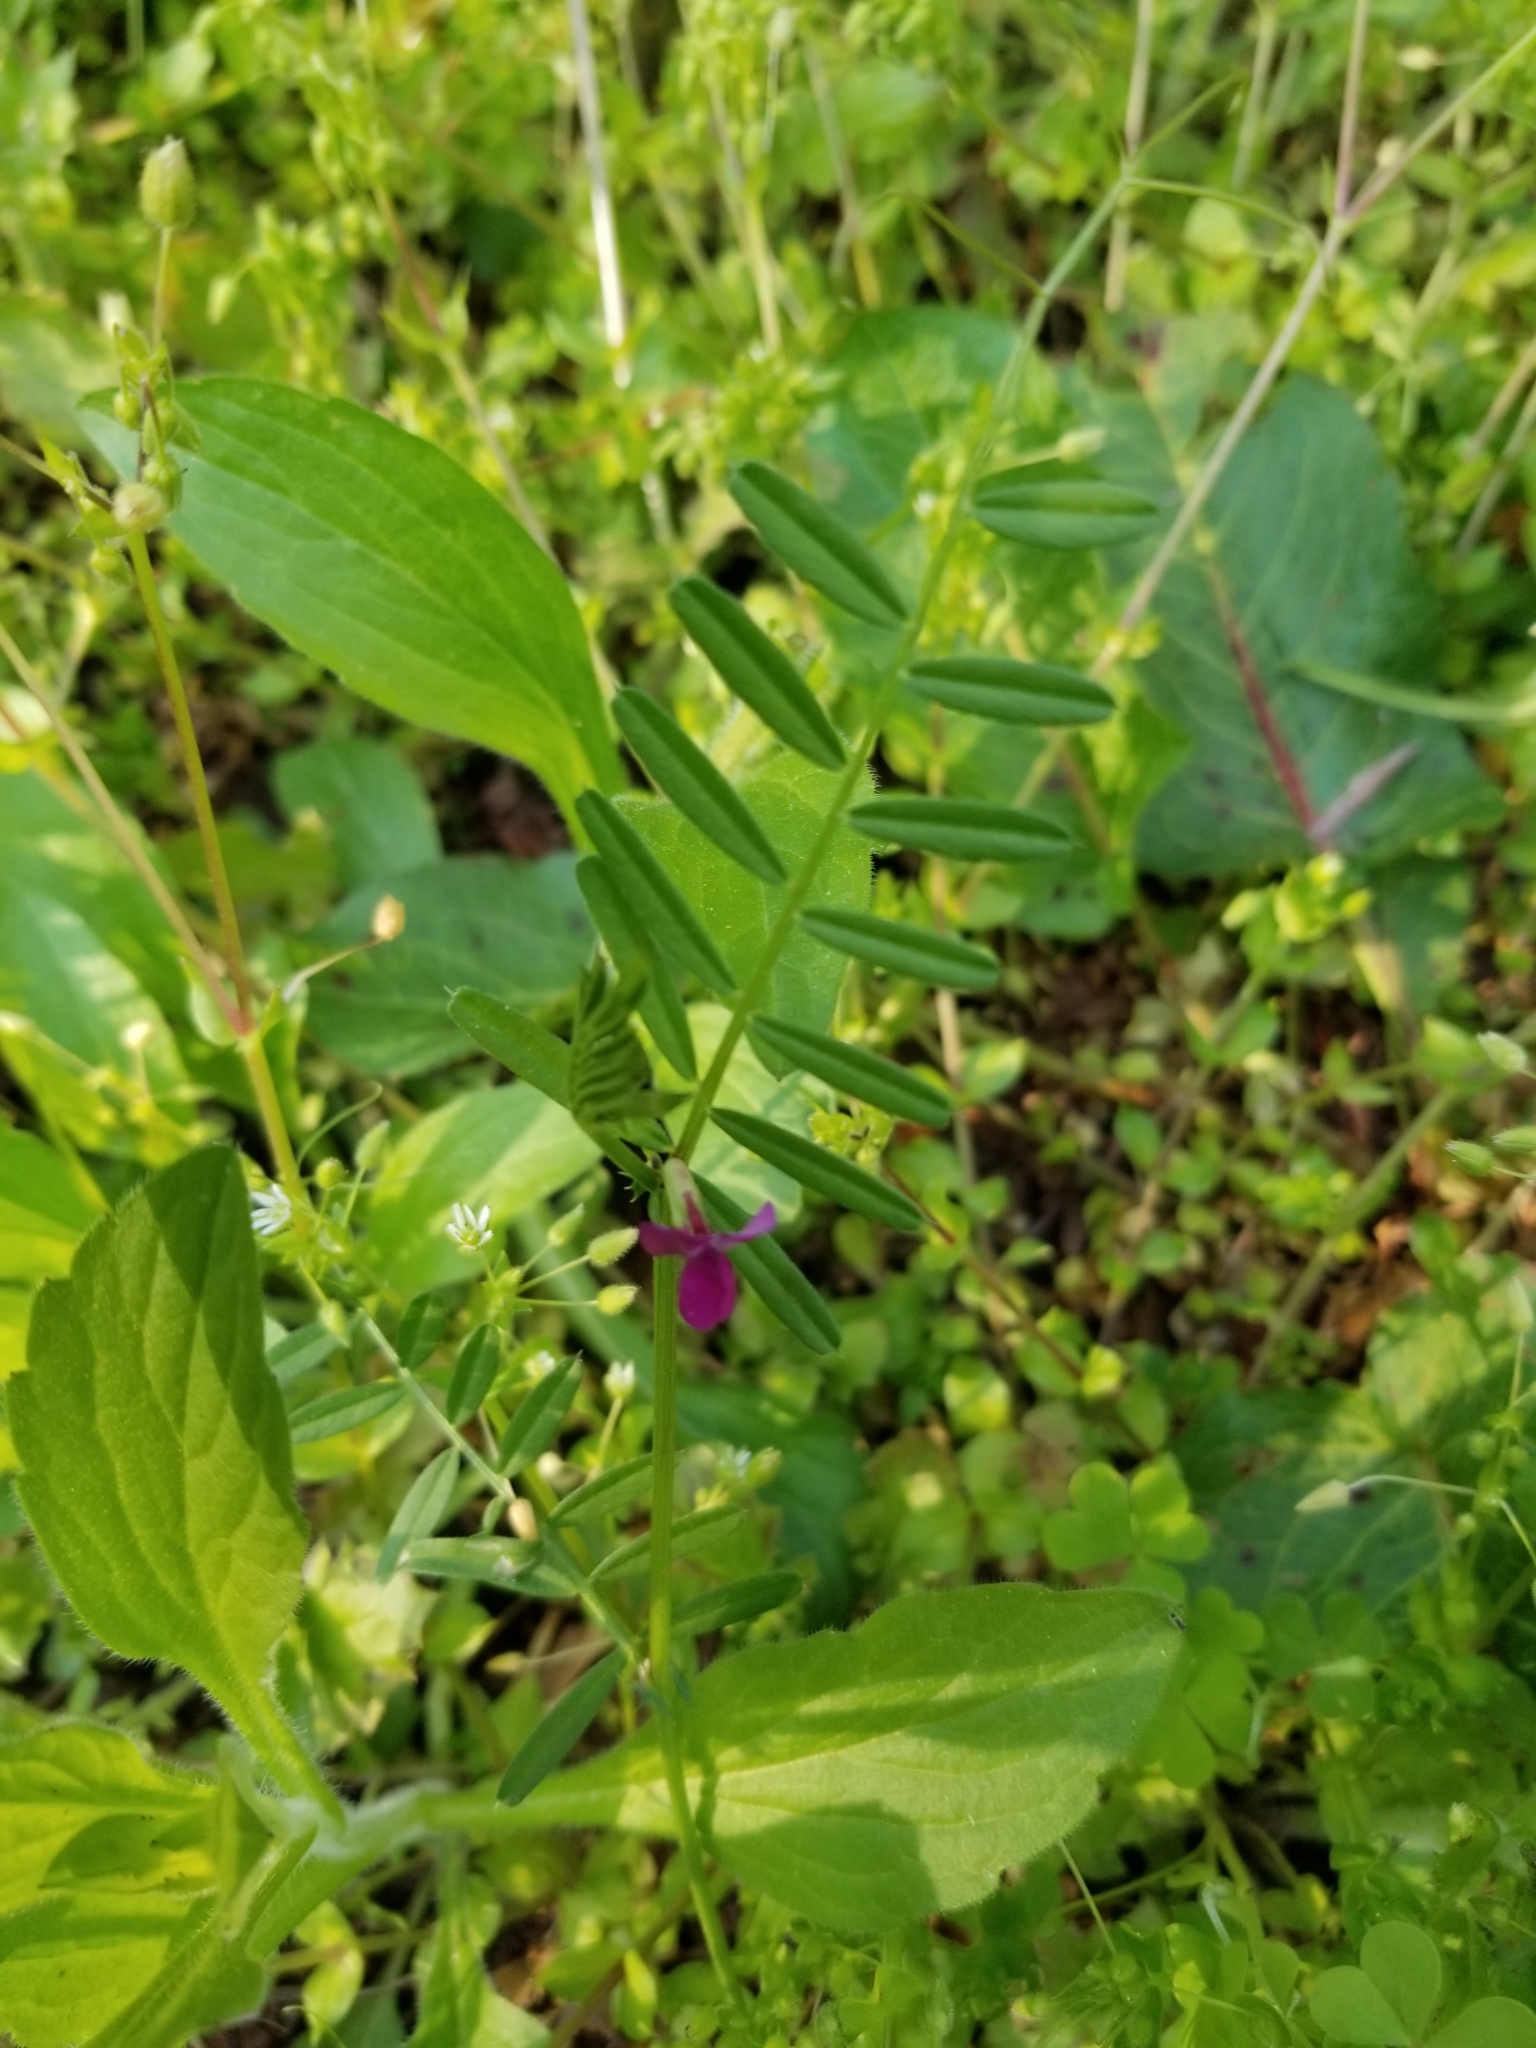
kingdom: Plantae
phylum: Tracheophyta
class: Magnoliopsida
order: Fabales
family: Fabaceae
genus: Vicia
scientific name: Vicia sativa
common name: Garden vetch
